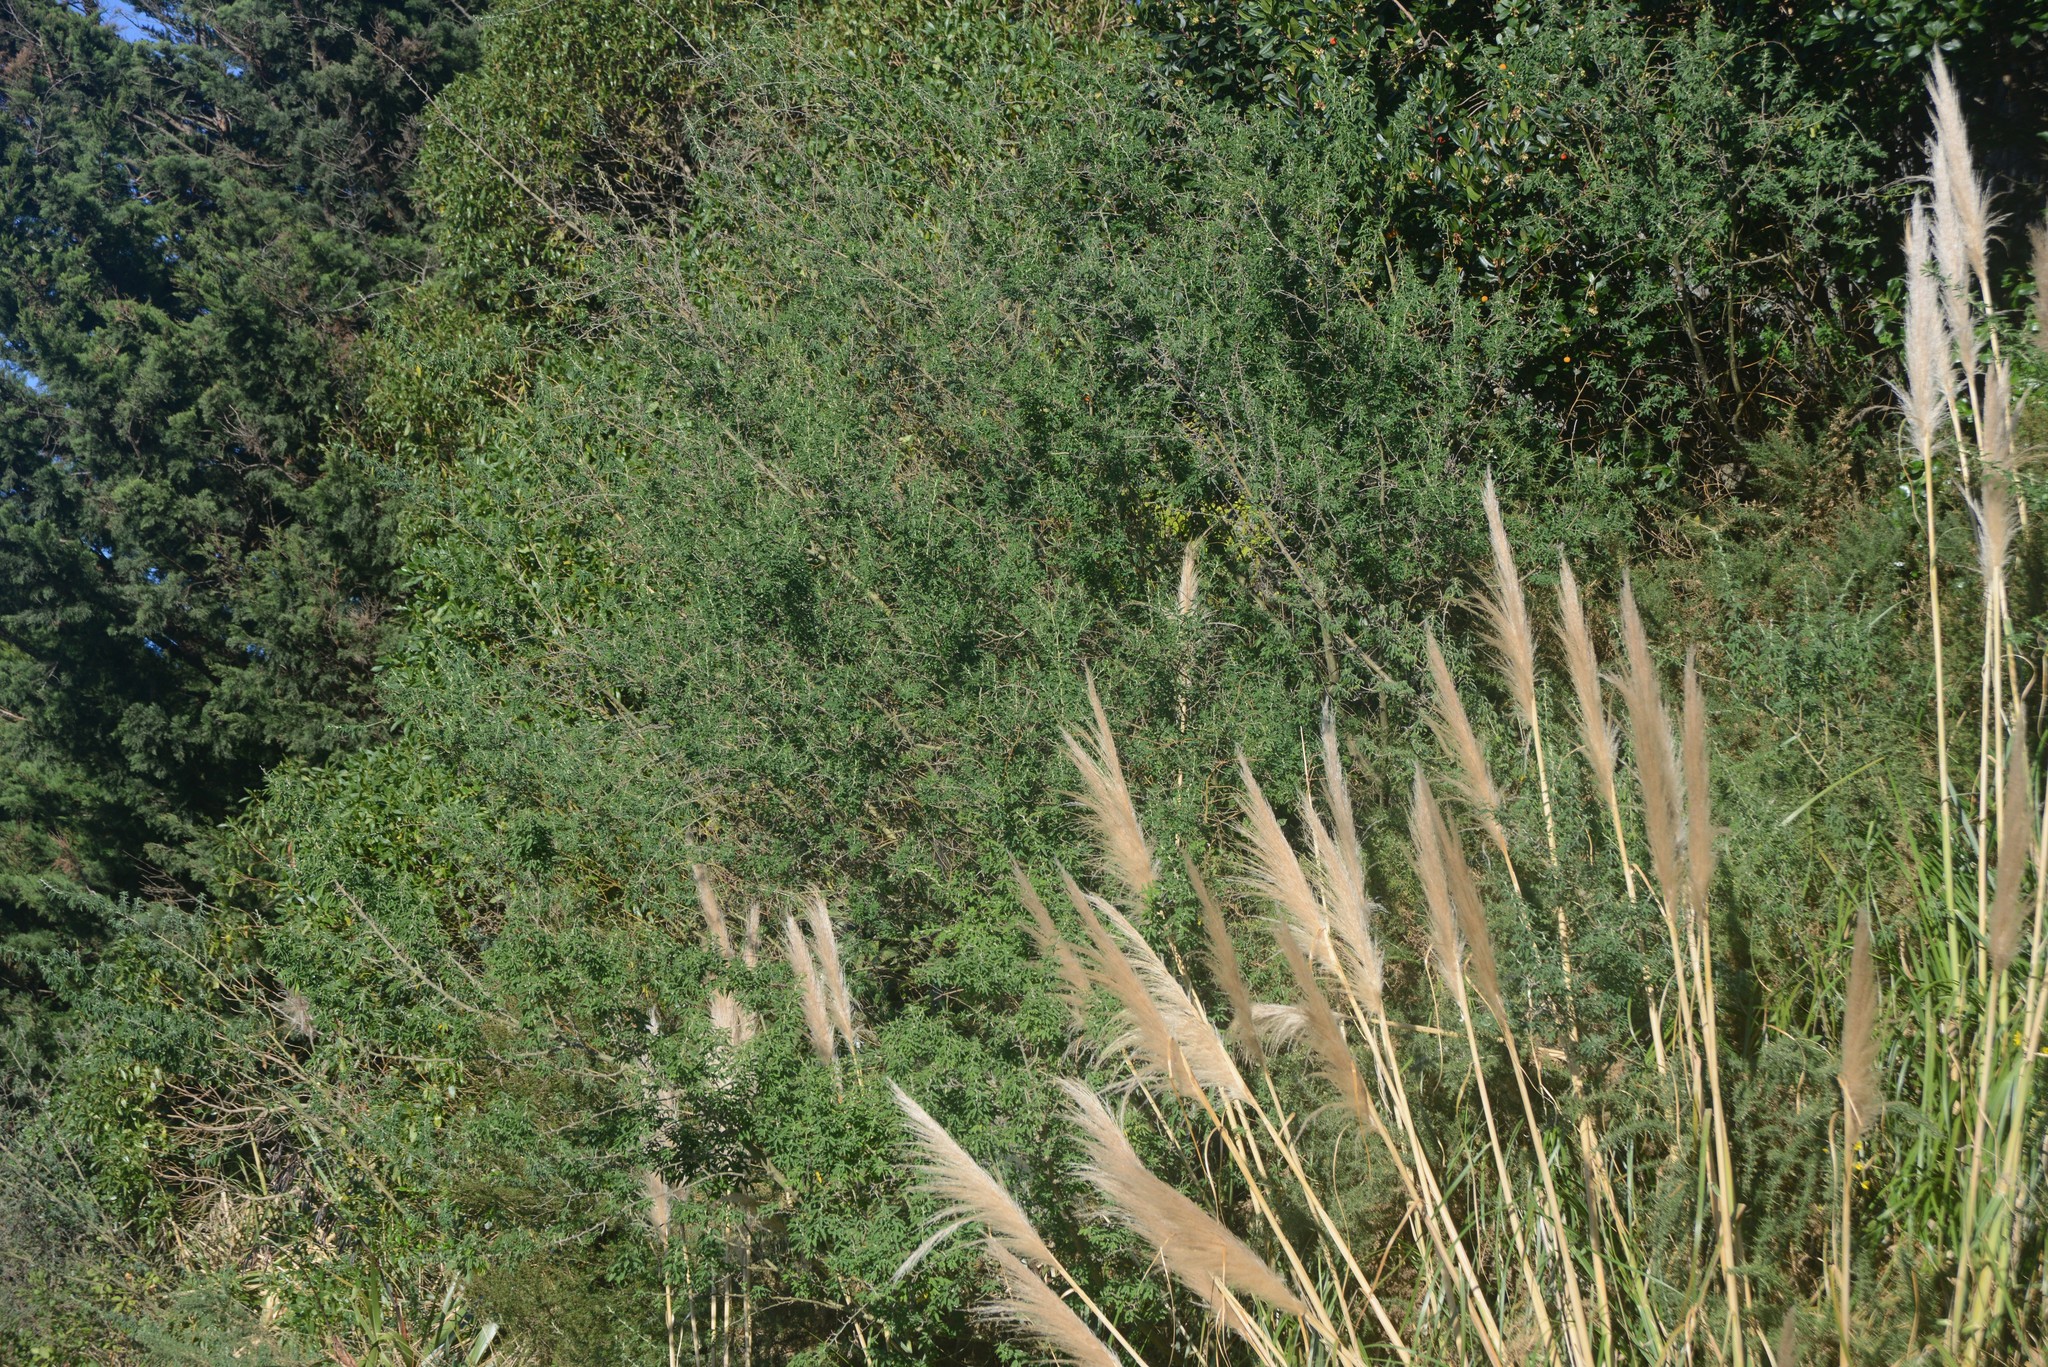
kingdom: Plantae
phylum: Tracheophyta
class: Magnoliopsida
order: Fabales
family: Fabaceae
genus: Chamaecytisus
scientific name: Chamaecytisus prolifer
